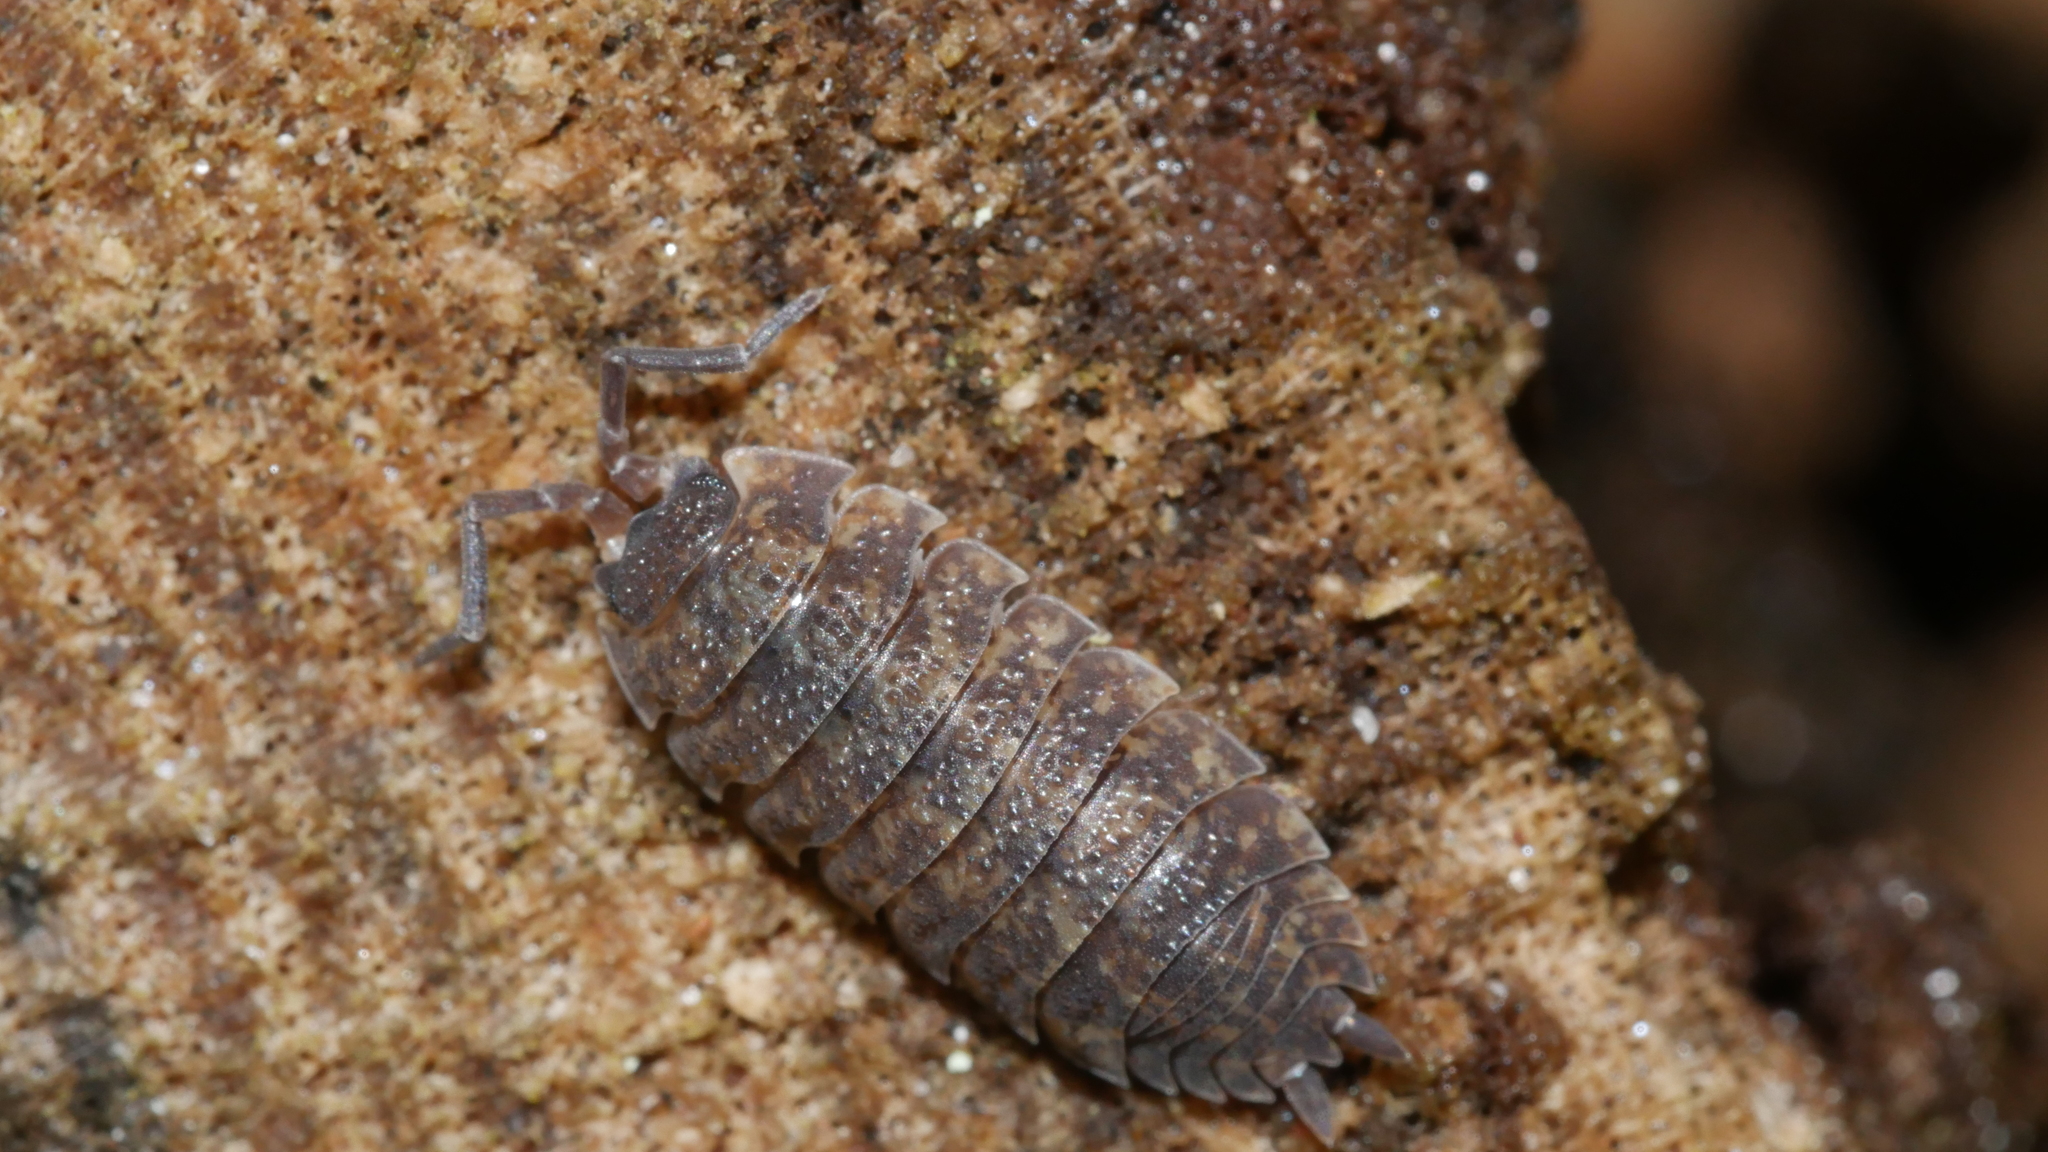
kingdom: Animalia
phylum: Arthropoda
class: Malacostraca
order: Isopoda
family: Porcellionidae
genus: Porcellio
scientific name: Porcellio scaber
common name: Common rough woodlouse
